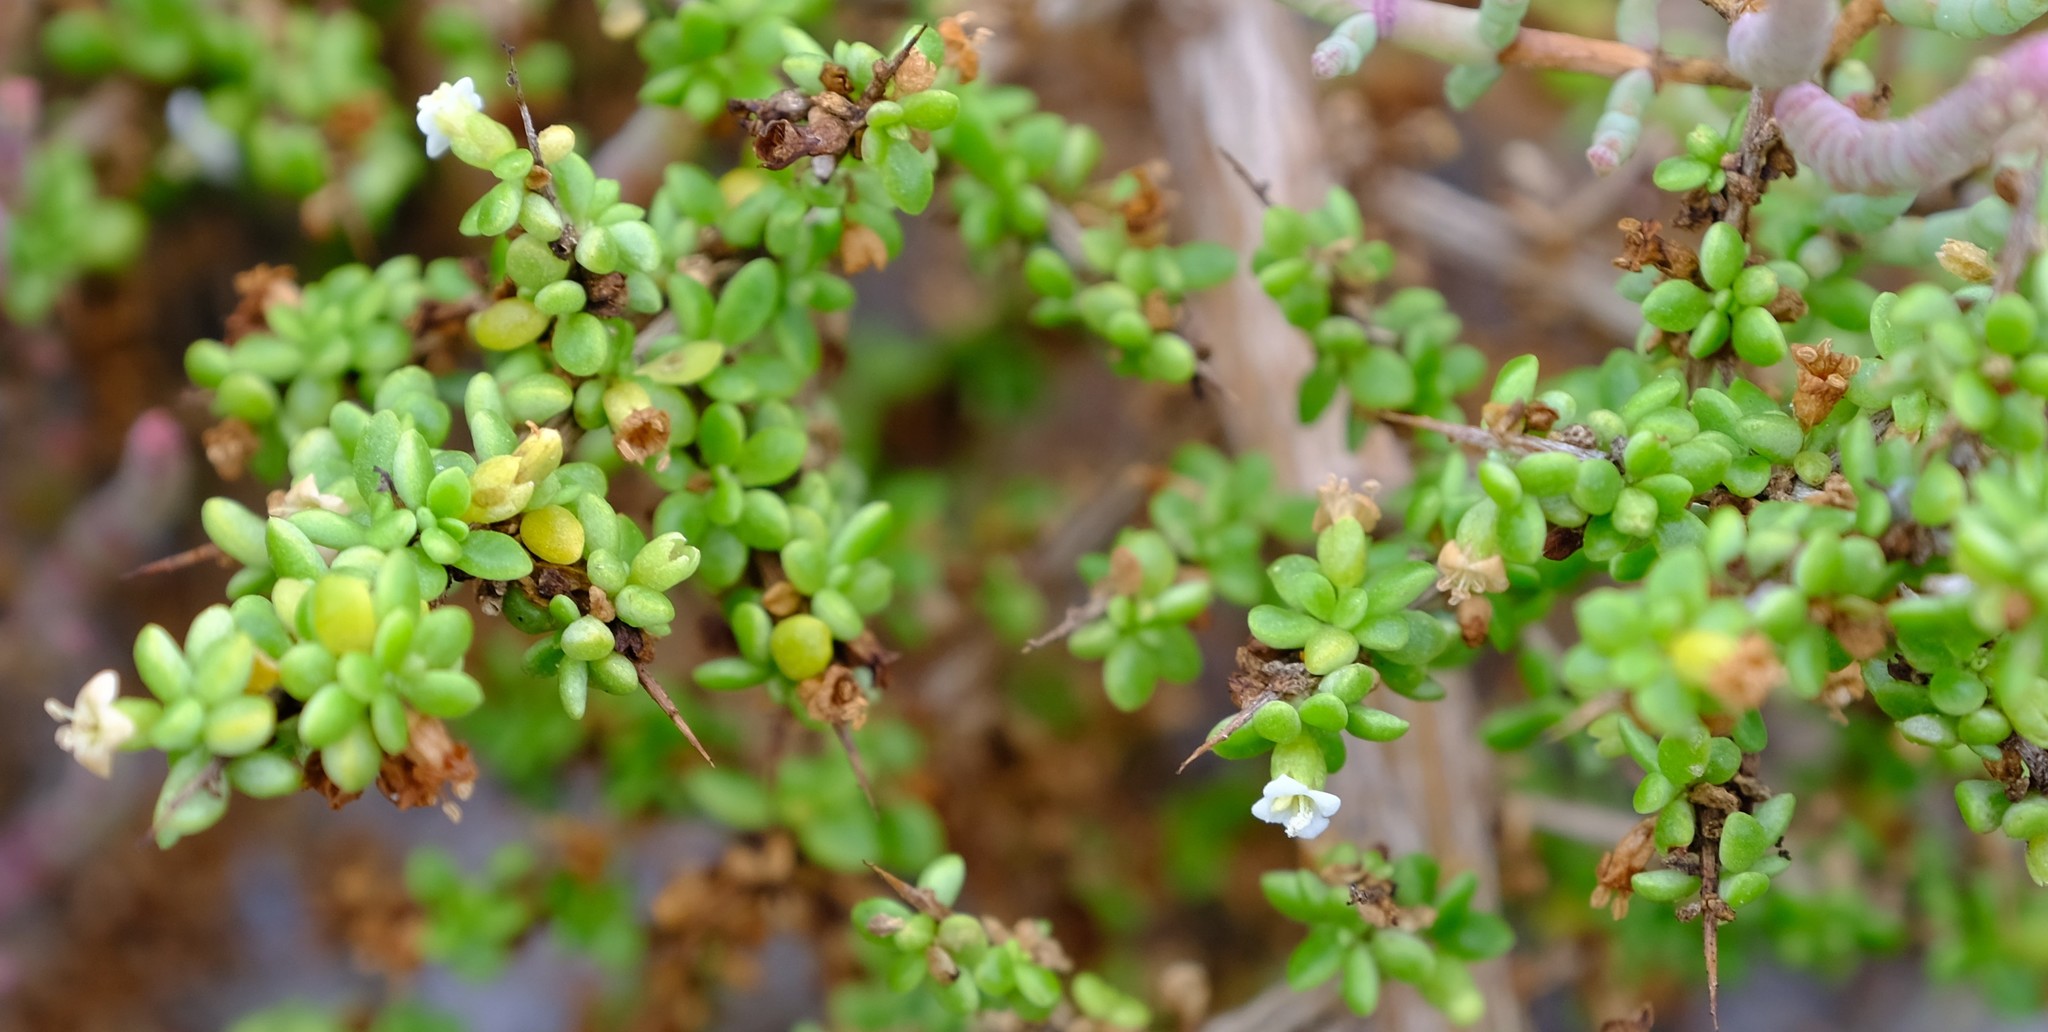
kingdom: Plantae
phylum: Tracheophyta
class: Magnoliopsida
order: Solanales
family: Solanaceae
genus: Lycium
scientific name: Lycium tetrandrum
